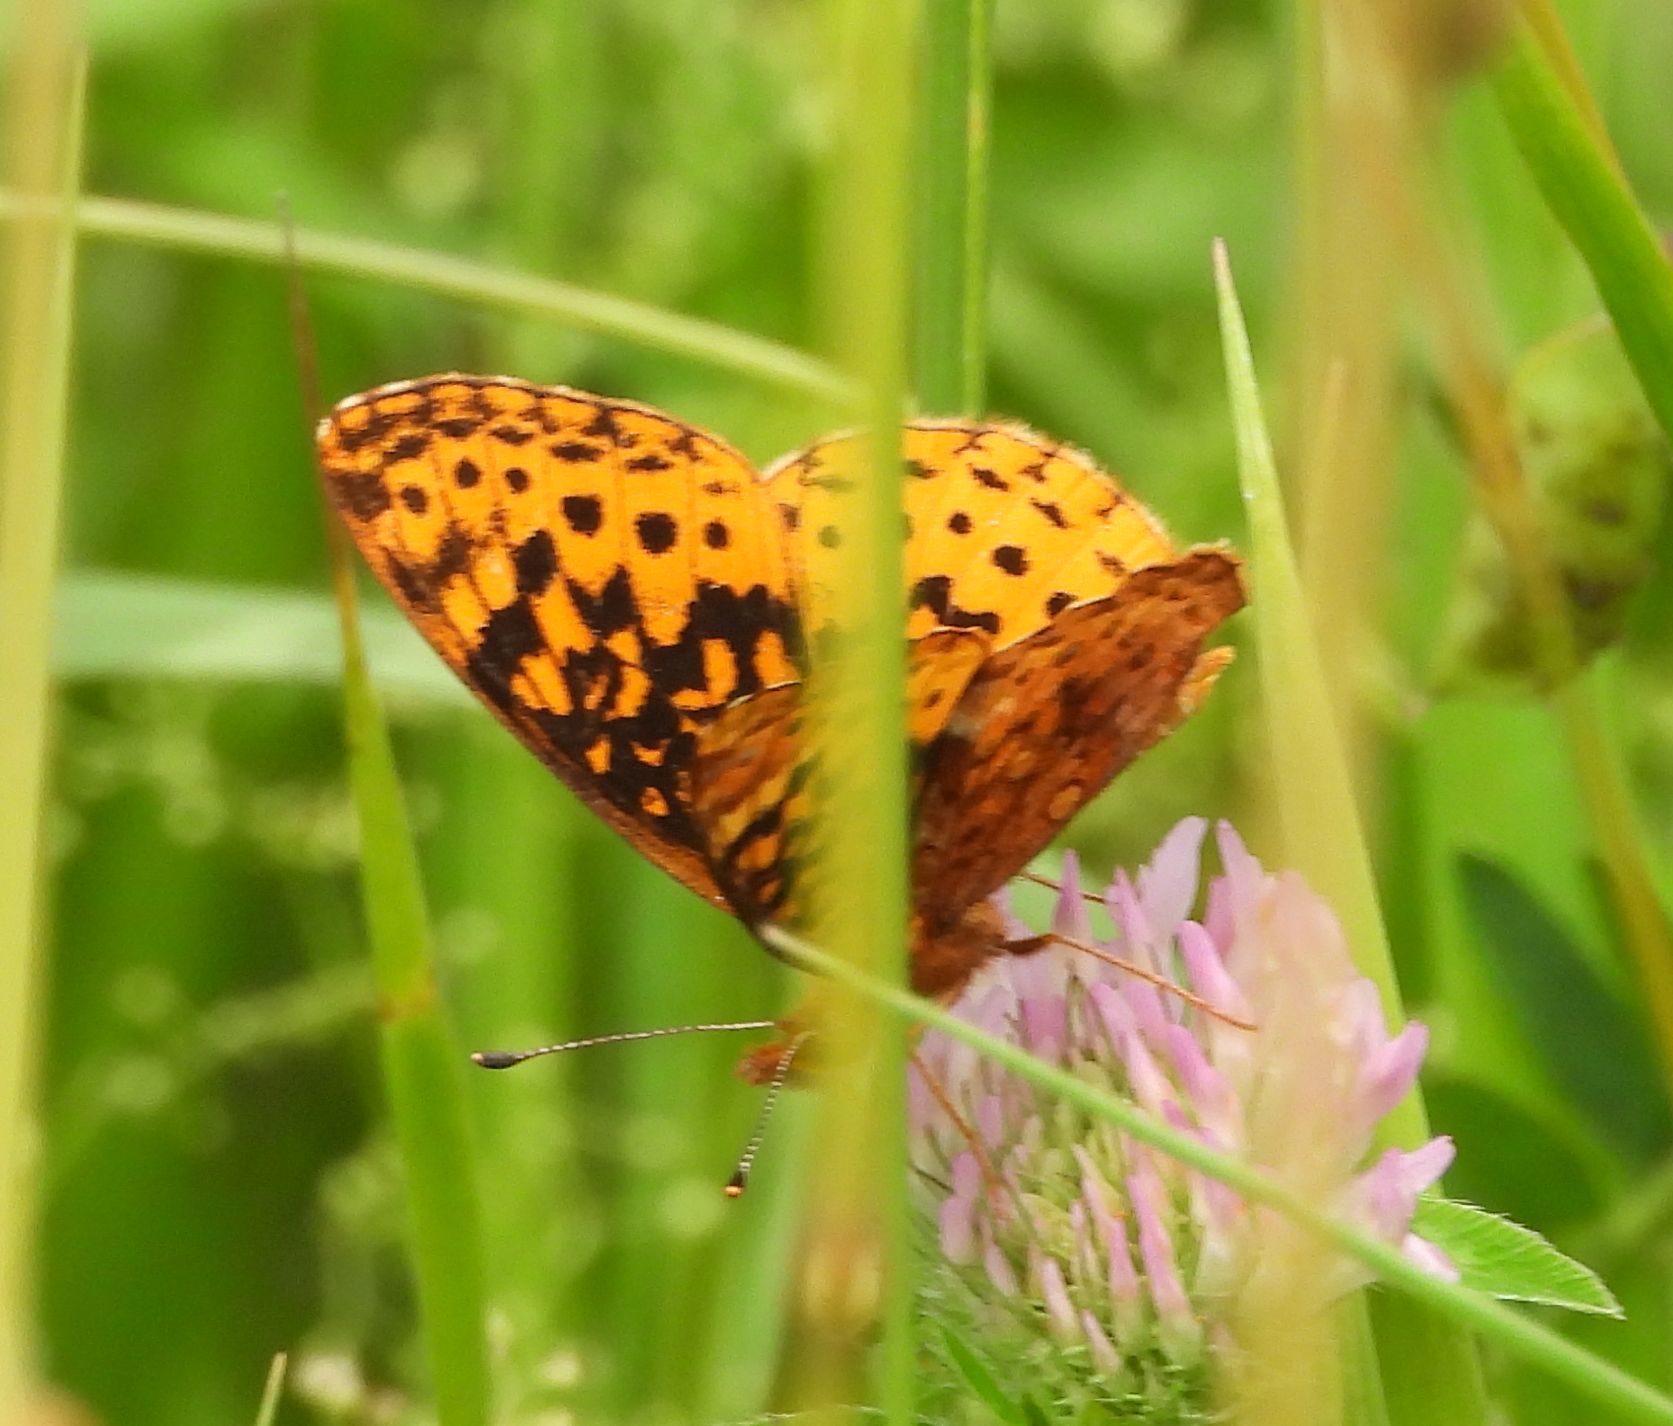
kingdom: Animalia
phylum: Arthropoda
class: Insecta
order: Lepidoptera
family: Nymphalidae
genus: Clossiana
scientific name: Clossiana toddi
